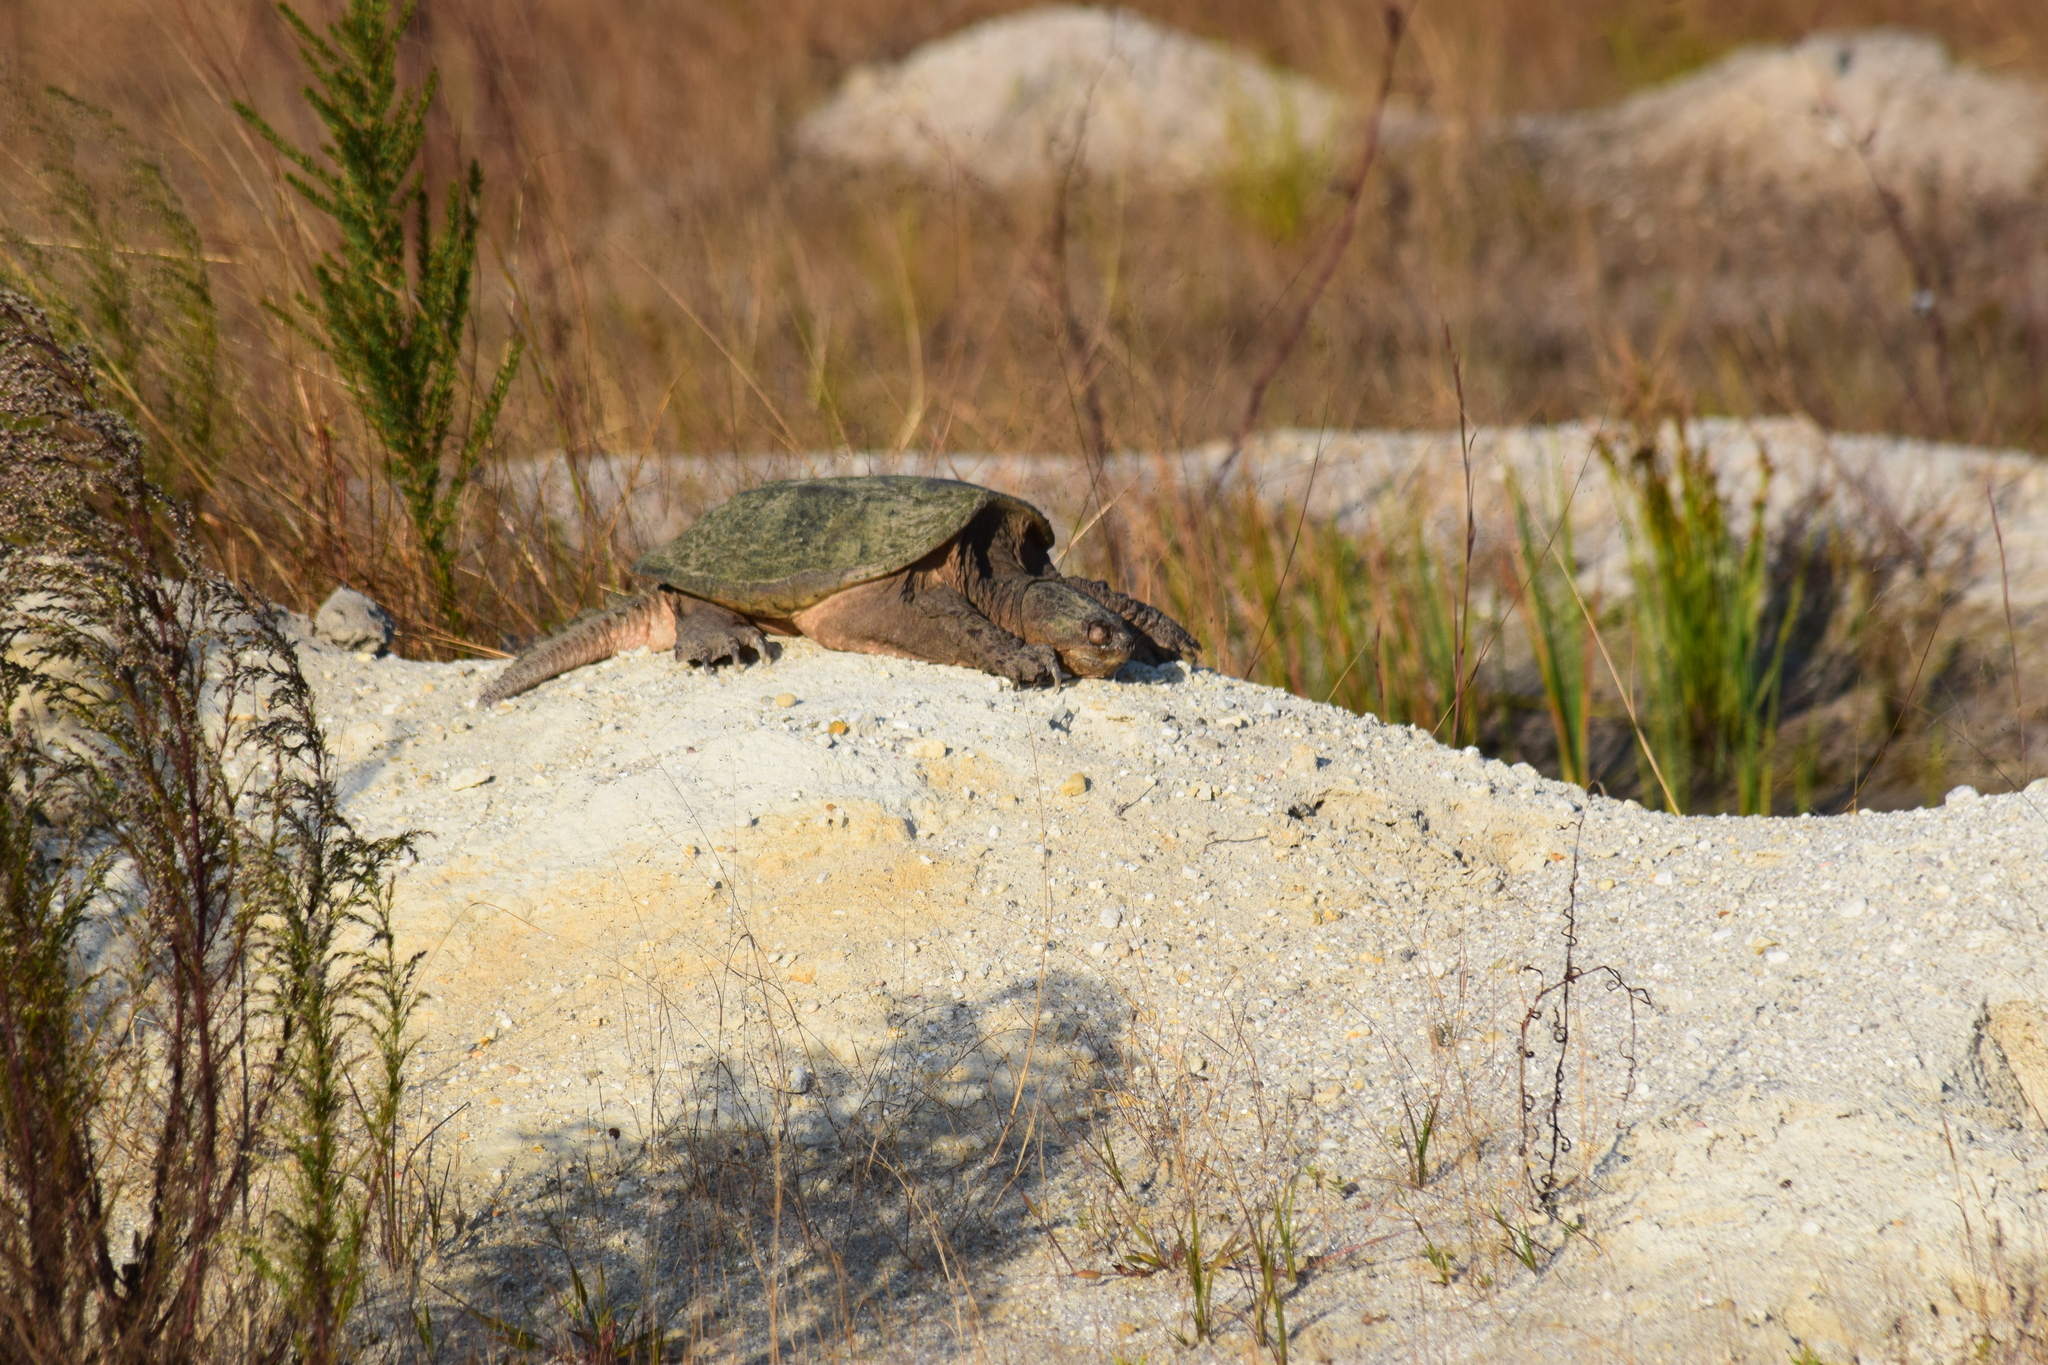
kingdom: Animalia
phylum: Chordata
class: Testudines
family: Chelydridae
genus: Chelydra
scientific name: Chelydra serpentina
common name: Common snapping turtle
